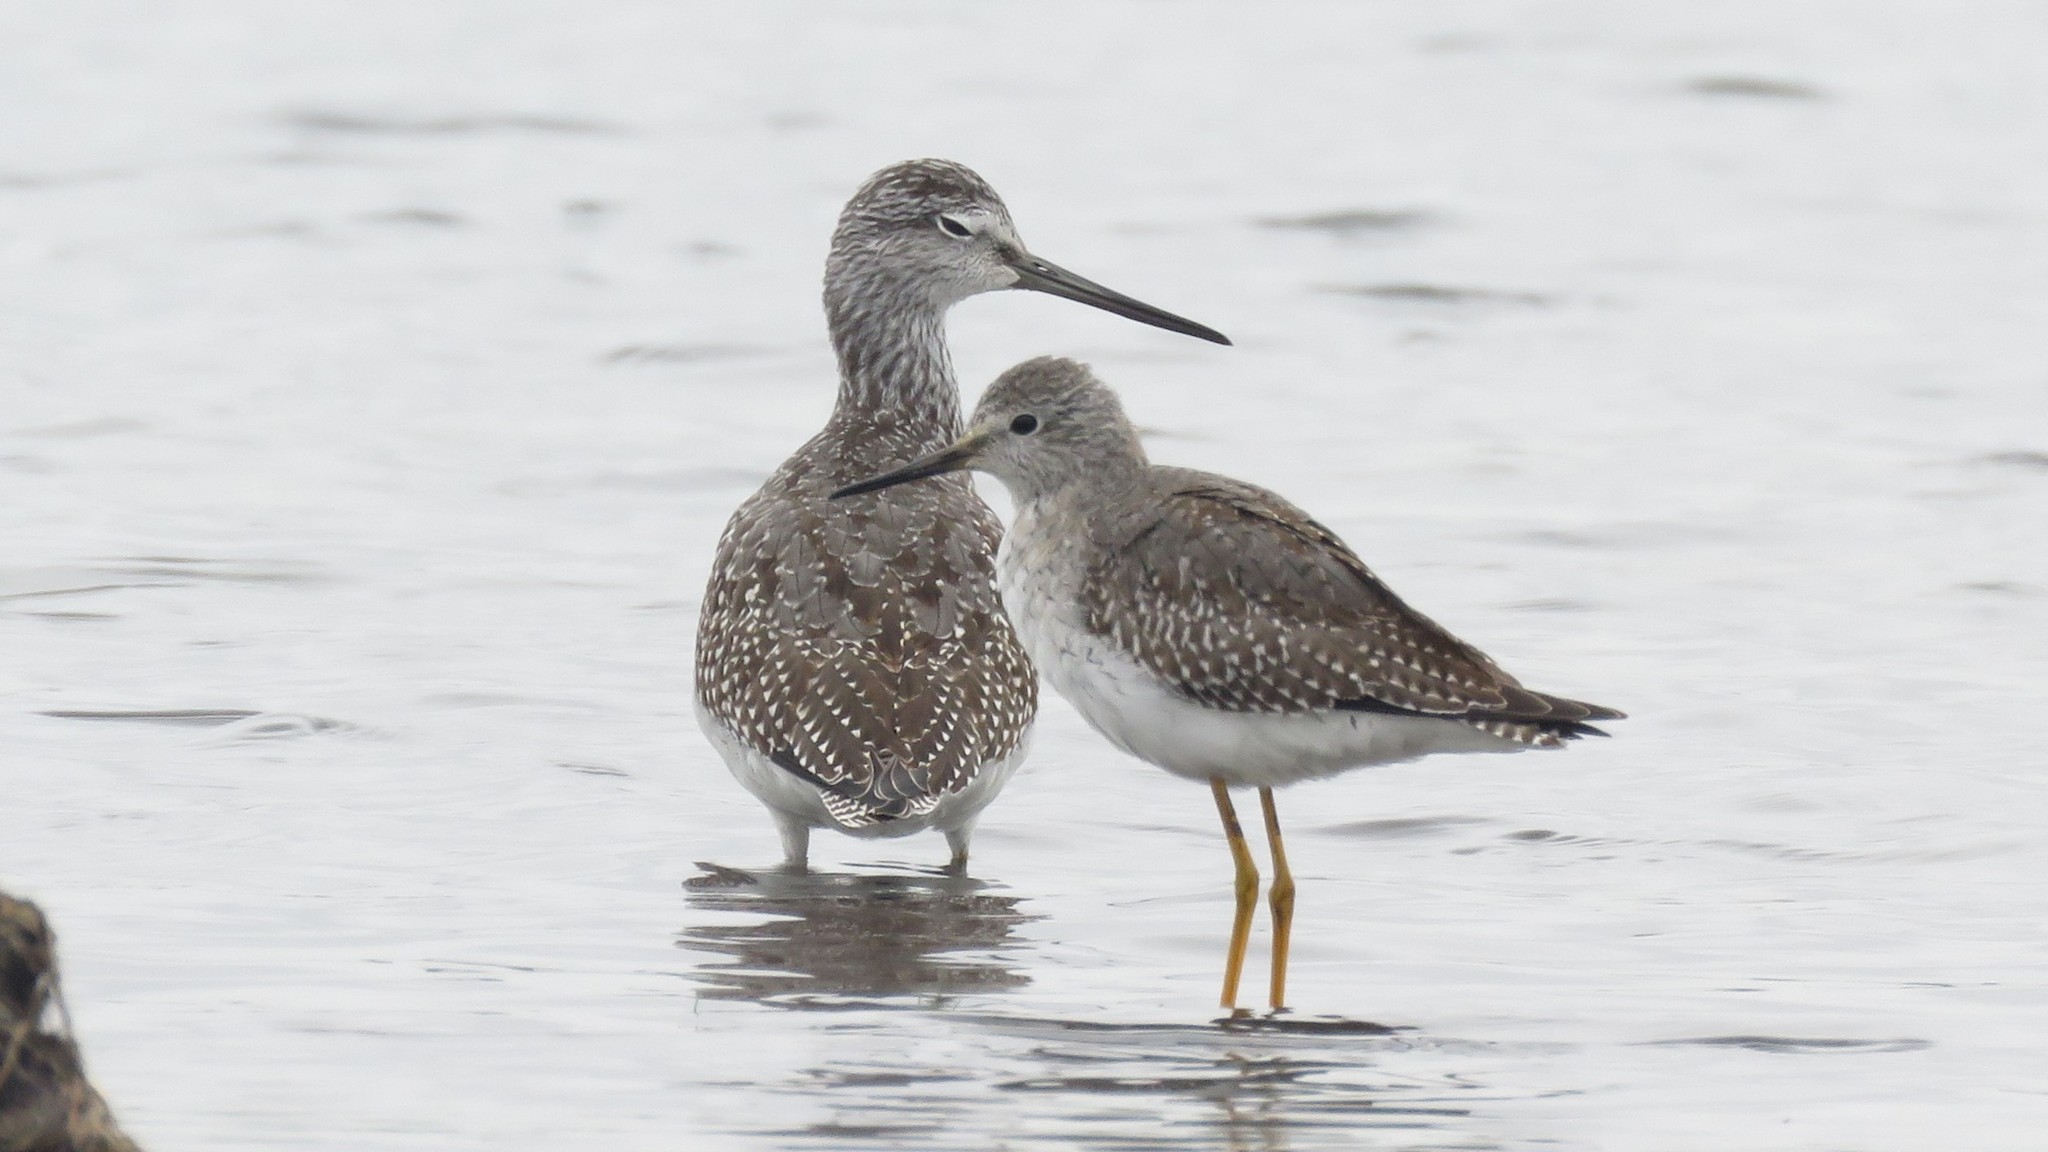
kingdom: Animalia
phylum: Chordata
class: Aves
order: Charadriiformes
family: Scolopacidae
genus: Tringa
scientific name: Tringa flavipes
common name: Lesser yellowlegs
